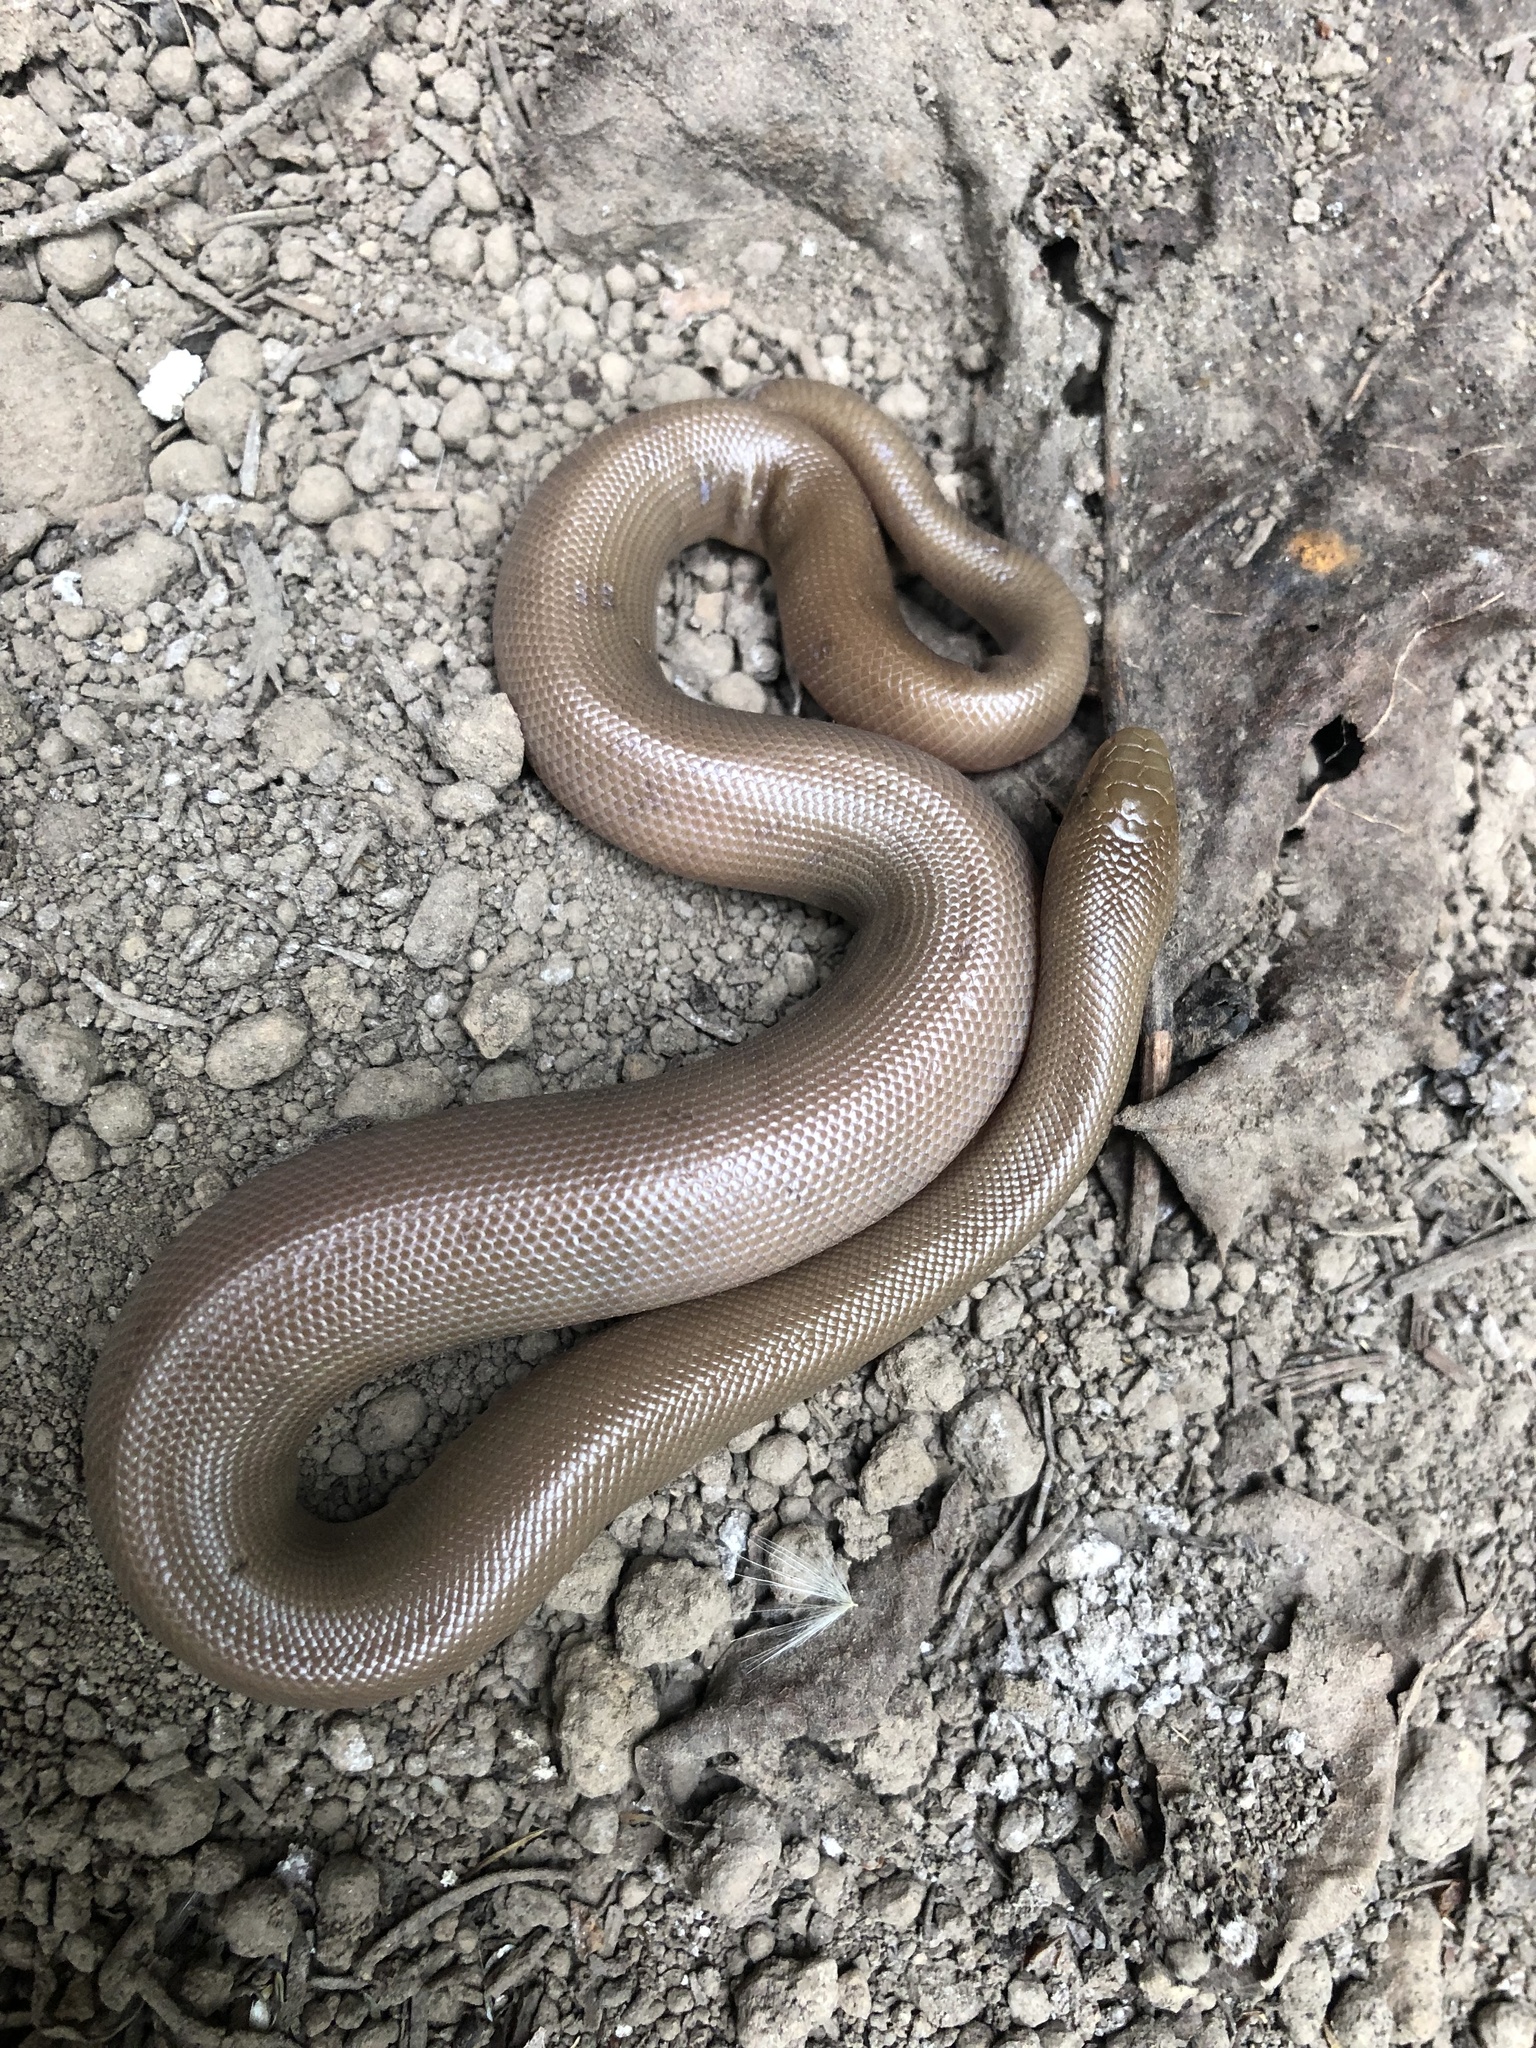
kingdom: Animalia
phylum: Chordata
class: Squamata
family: Boidae
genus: Charina
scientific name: Charina bottae
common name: Northern rubber boa
